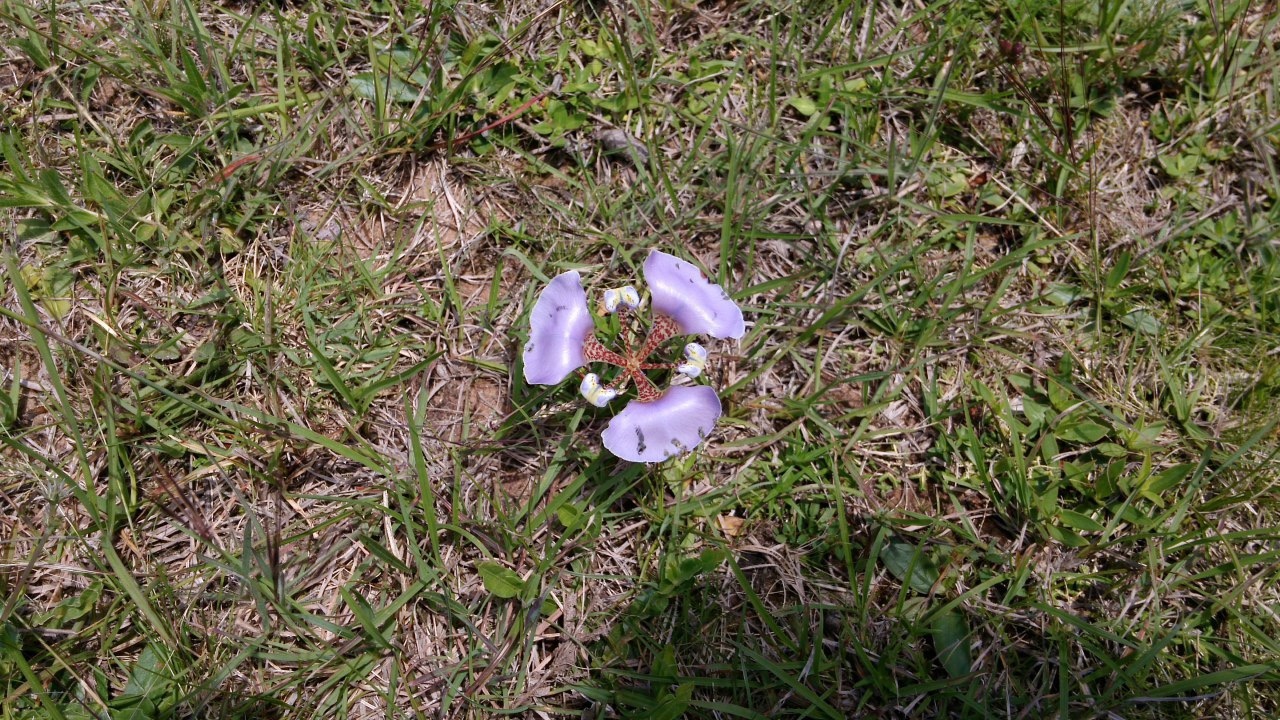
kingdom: Plantae
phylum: Tracheophyta
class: Liliopsida
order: Asparagales
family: Iridaceae
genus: Cypella
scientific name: Cypella unguiculata
